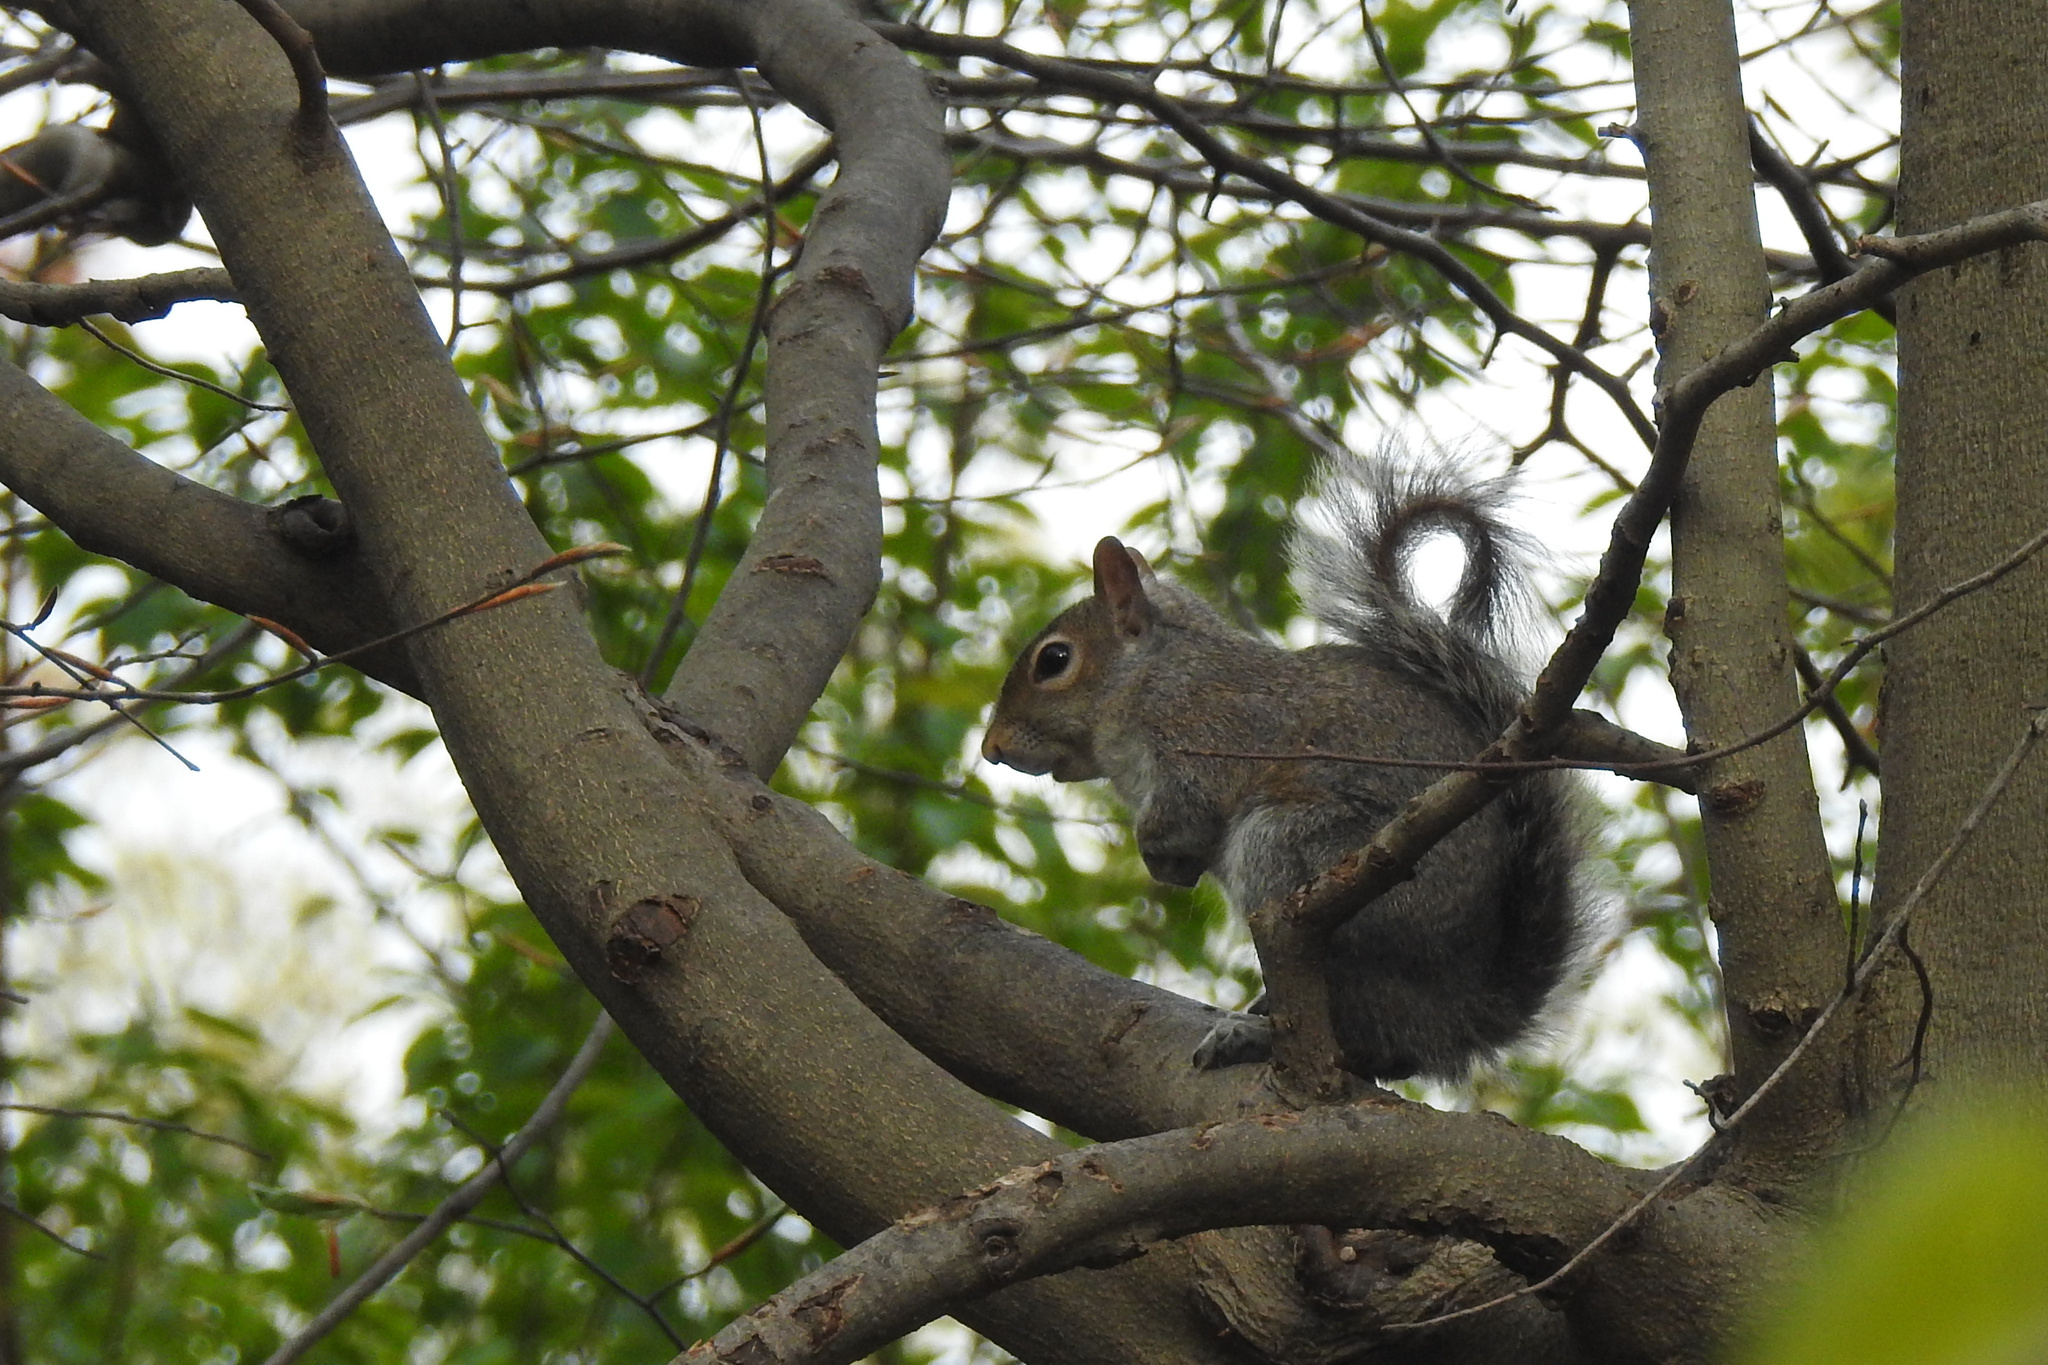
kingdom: Animalia
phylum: Chordata
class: Mammalia
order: Rodentia
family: Sciuridae
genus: Sciurus
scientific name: Sciurus carolinensis
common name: Eastern gray squirrel
